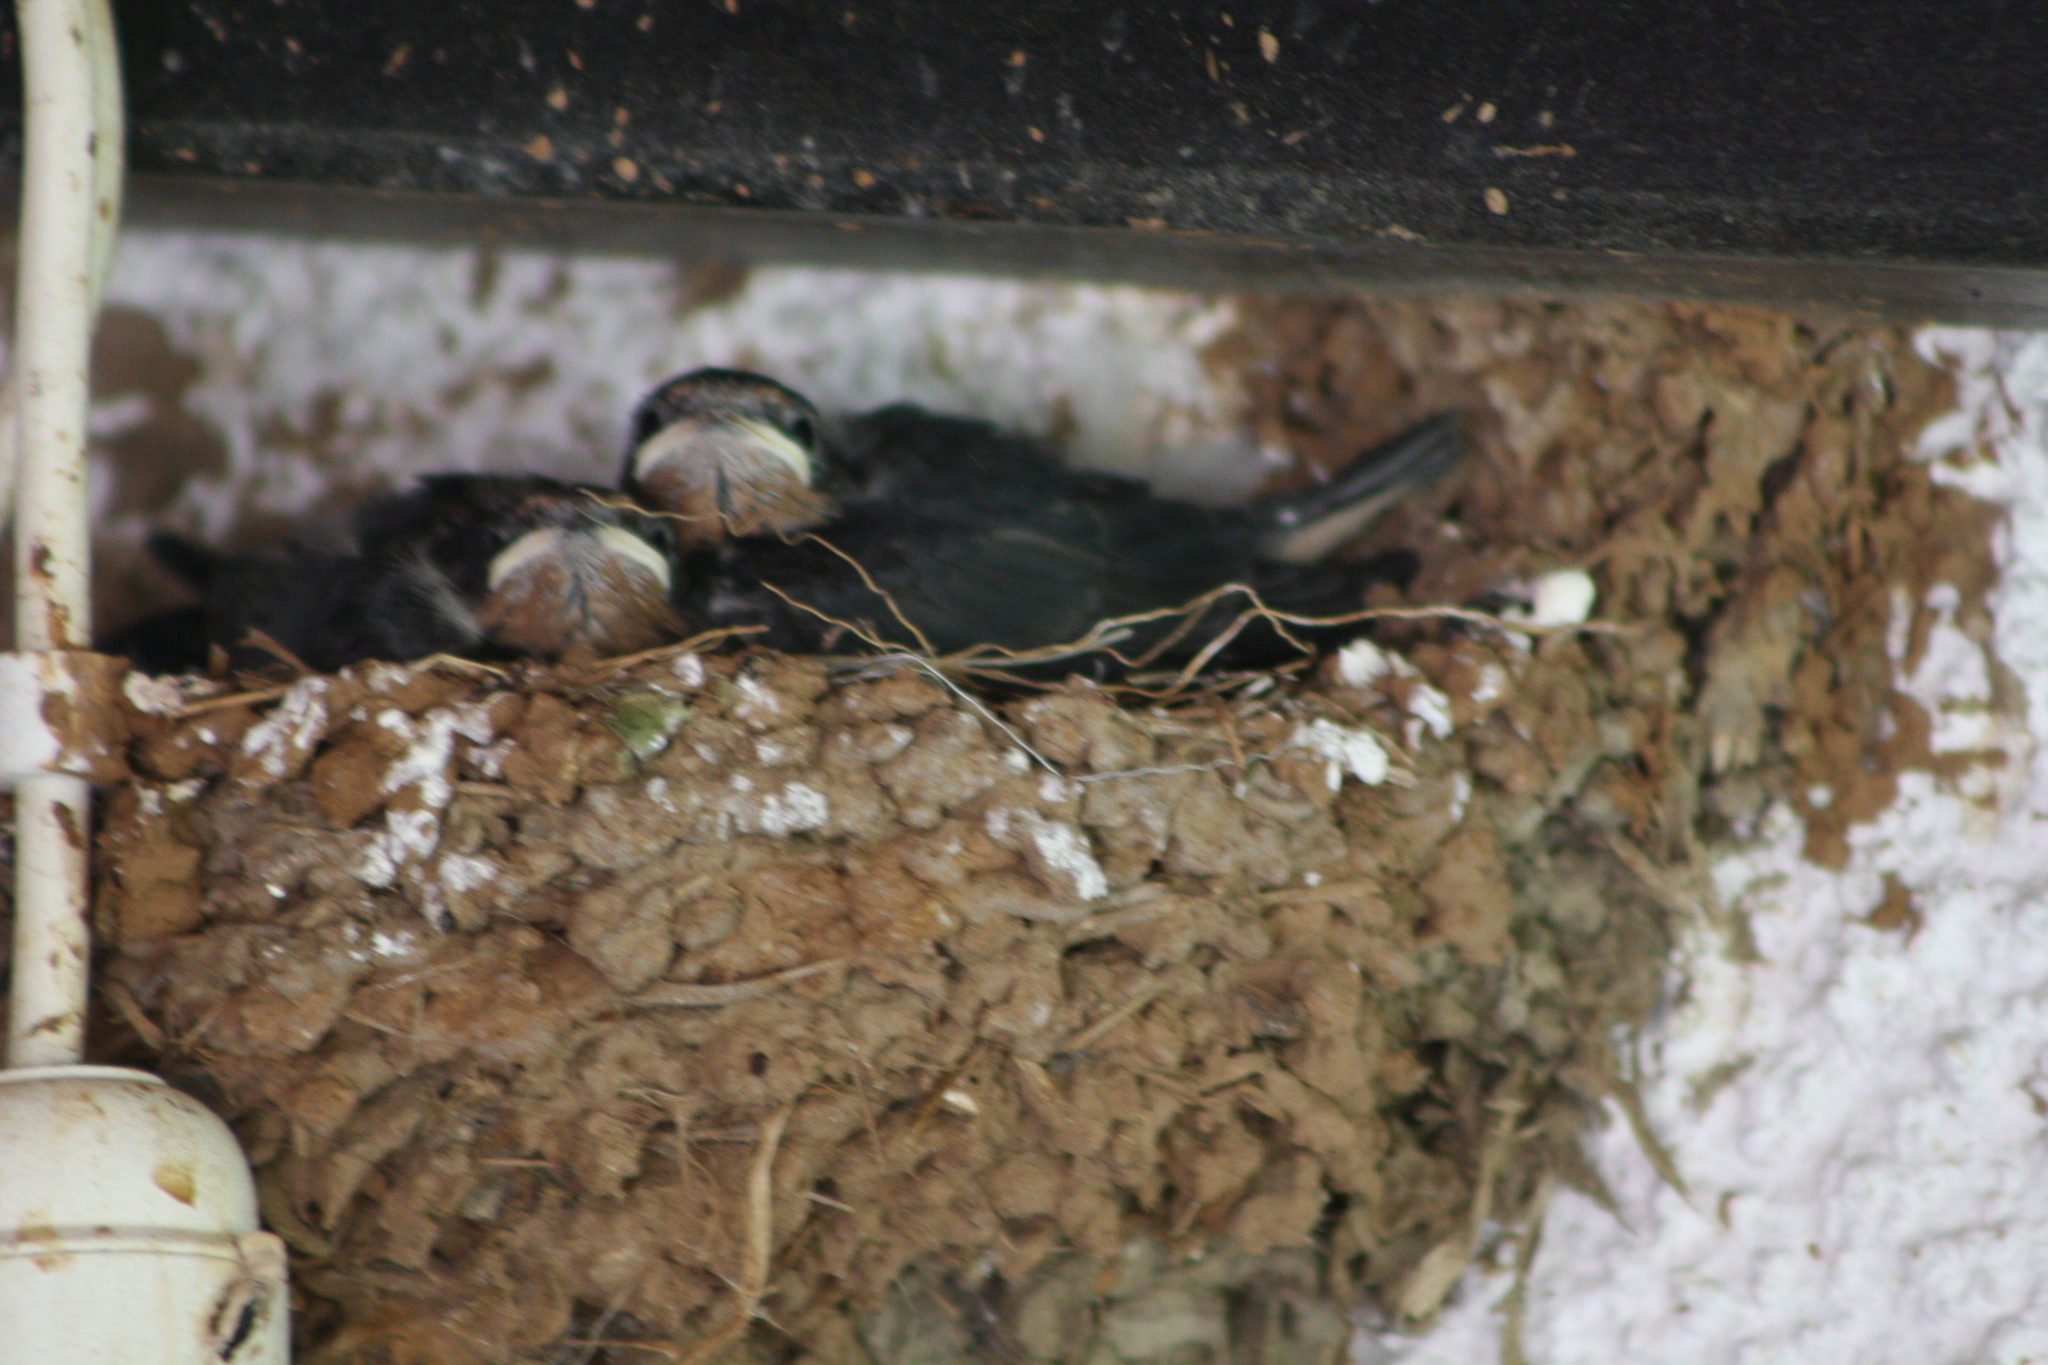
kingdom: Animalia
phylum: Chordata
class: Aves
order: Passeriformes
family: Hirundinidae
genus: Hirundo
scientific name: Hirundo rustica
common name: Barn swallow
